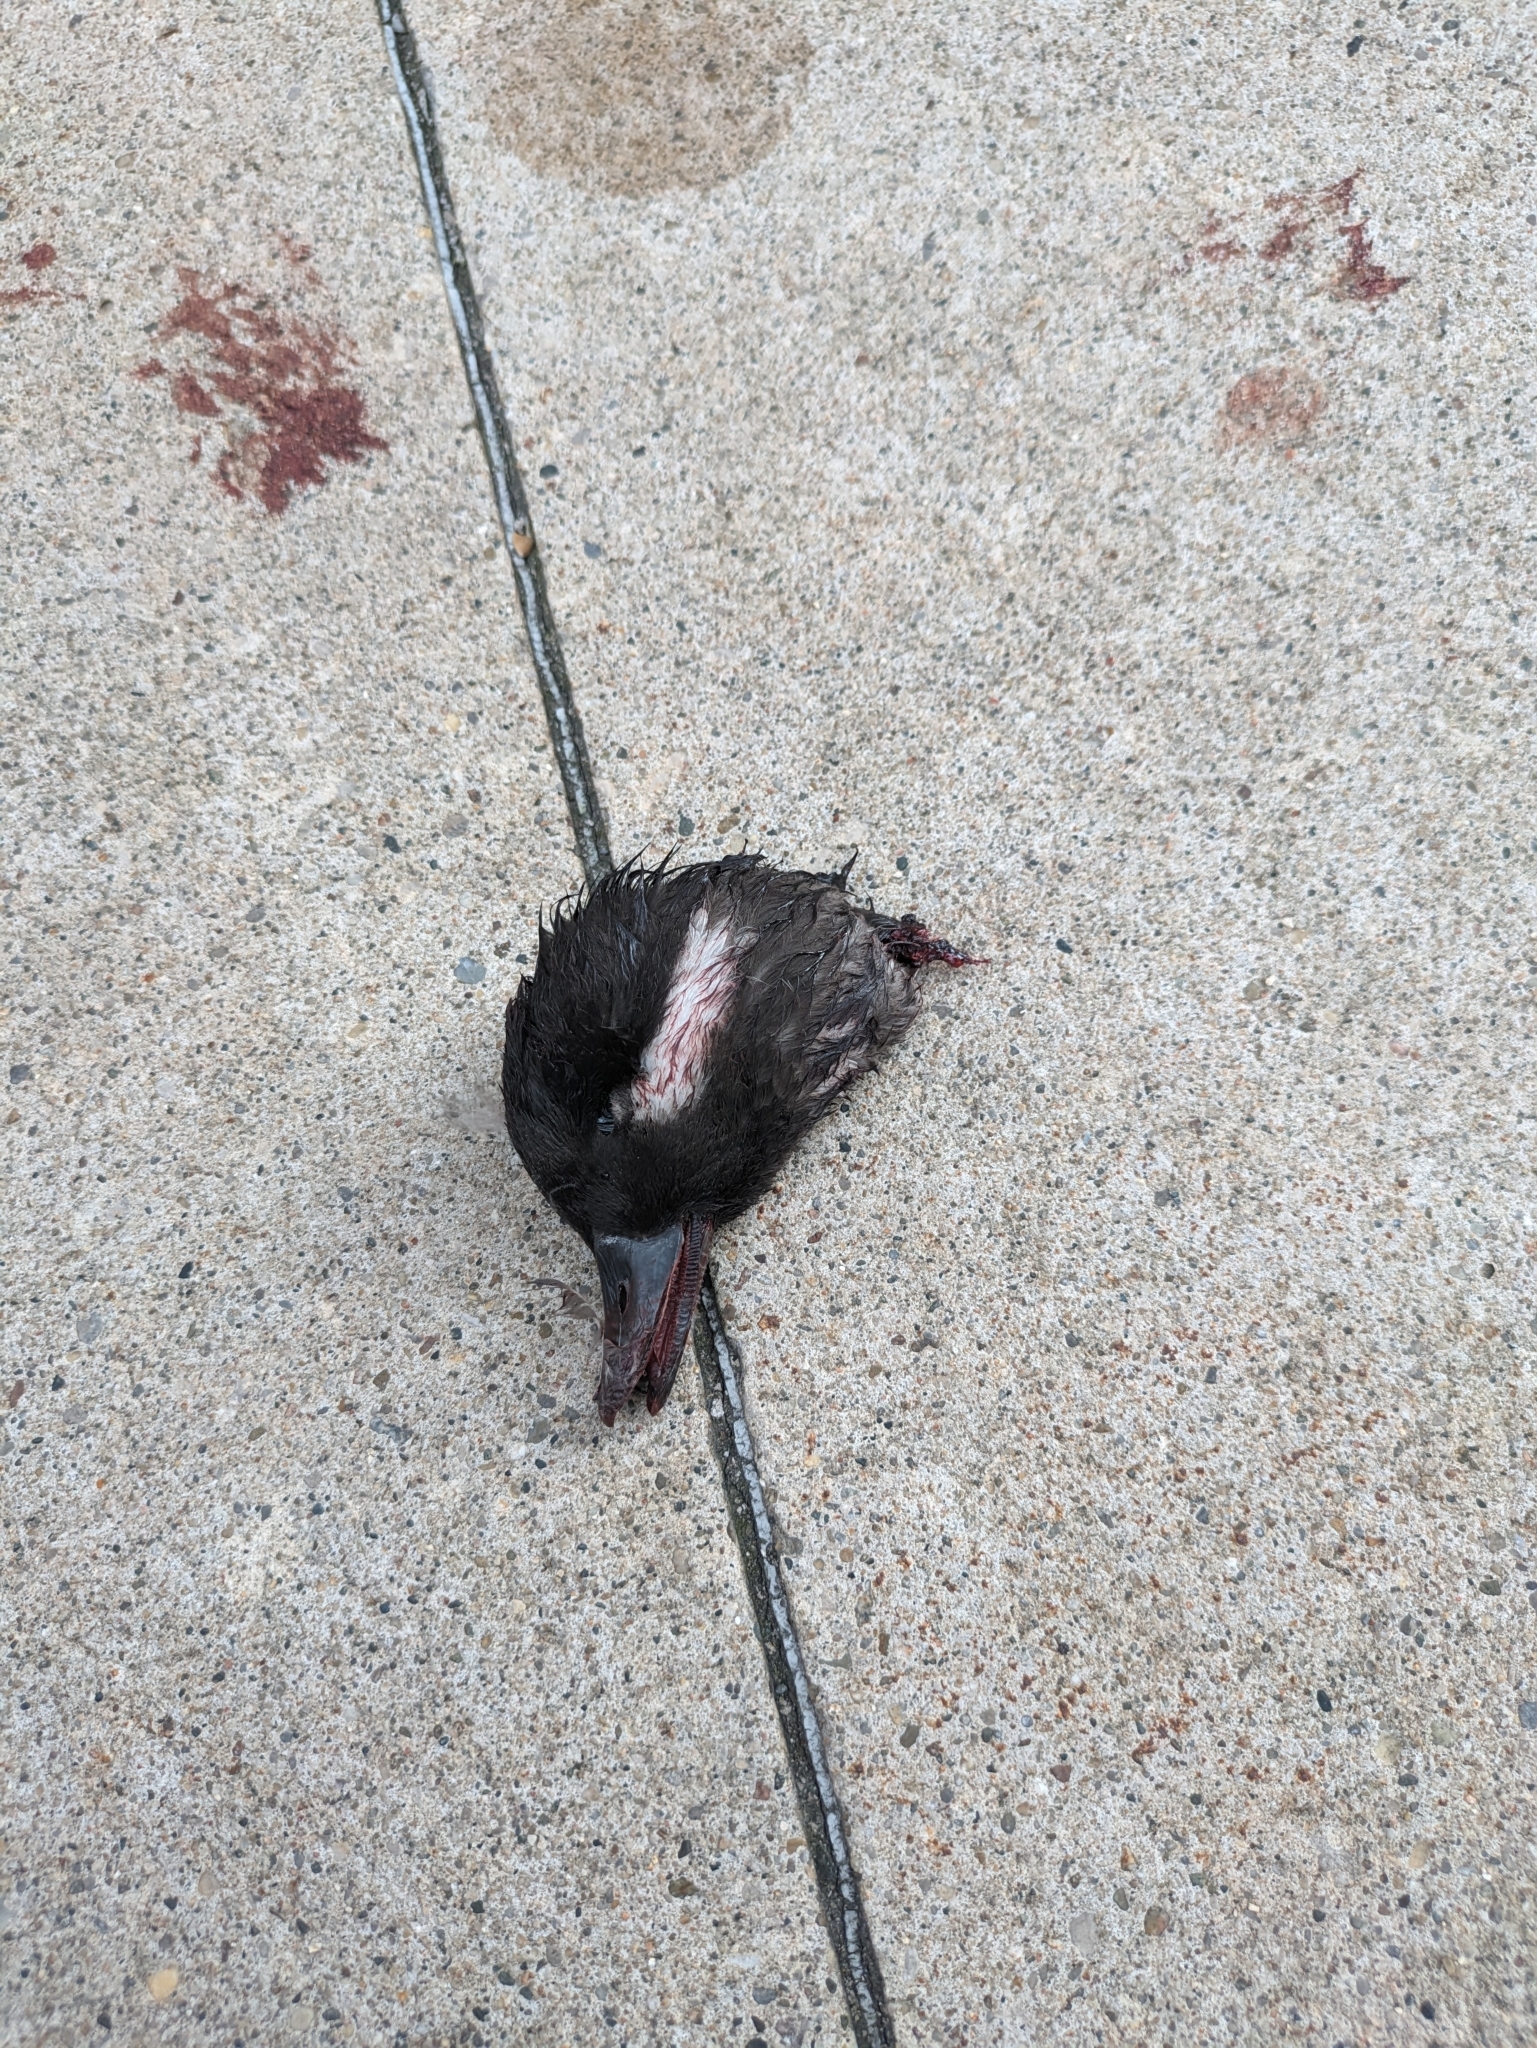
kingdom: Animalia
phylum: Chordata
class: Aves
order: Anseriformes
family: Anatidae
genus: Bucephala
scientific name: Bucephala albeola
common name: Bufflehead
